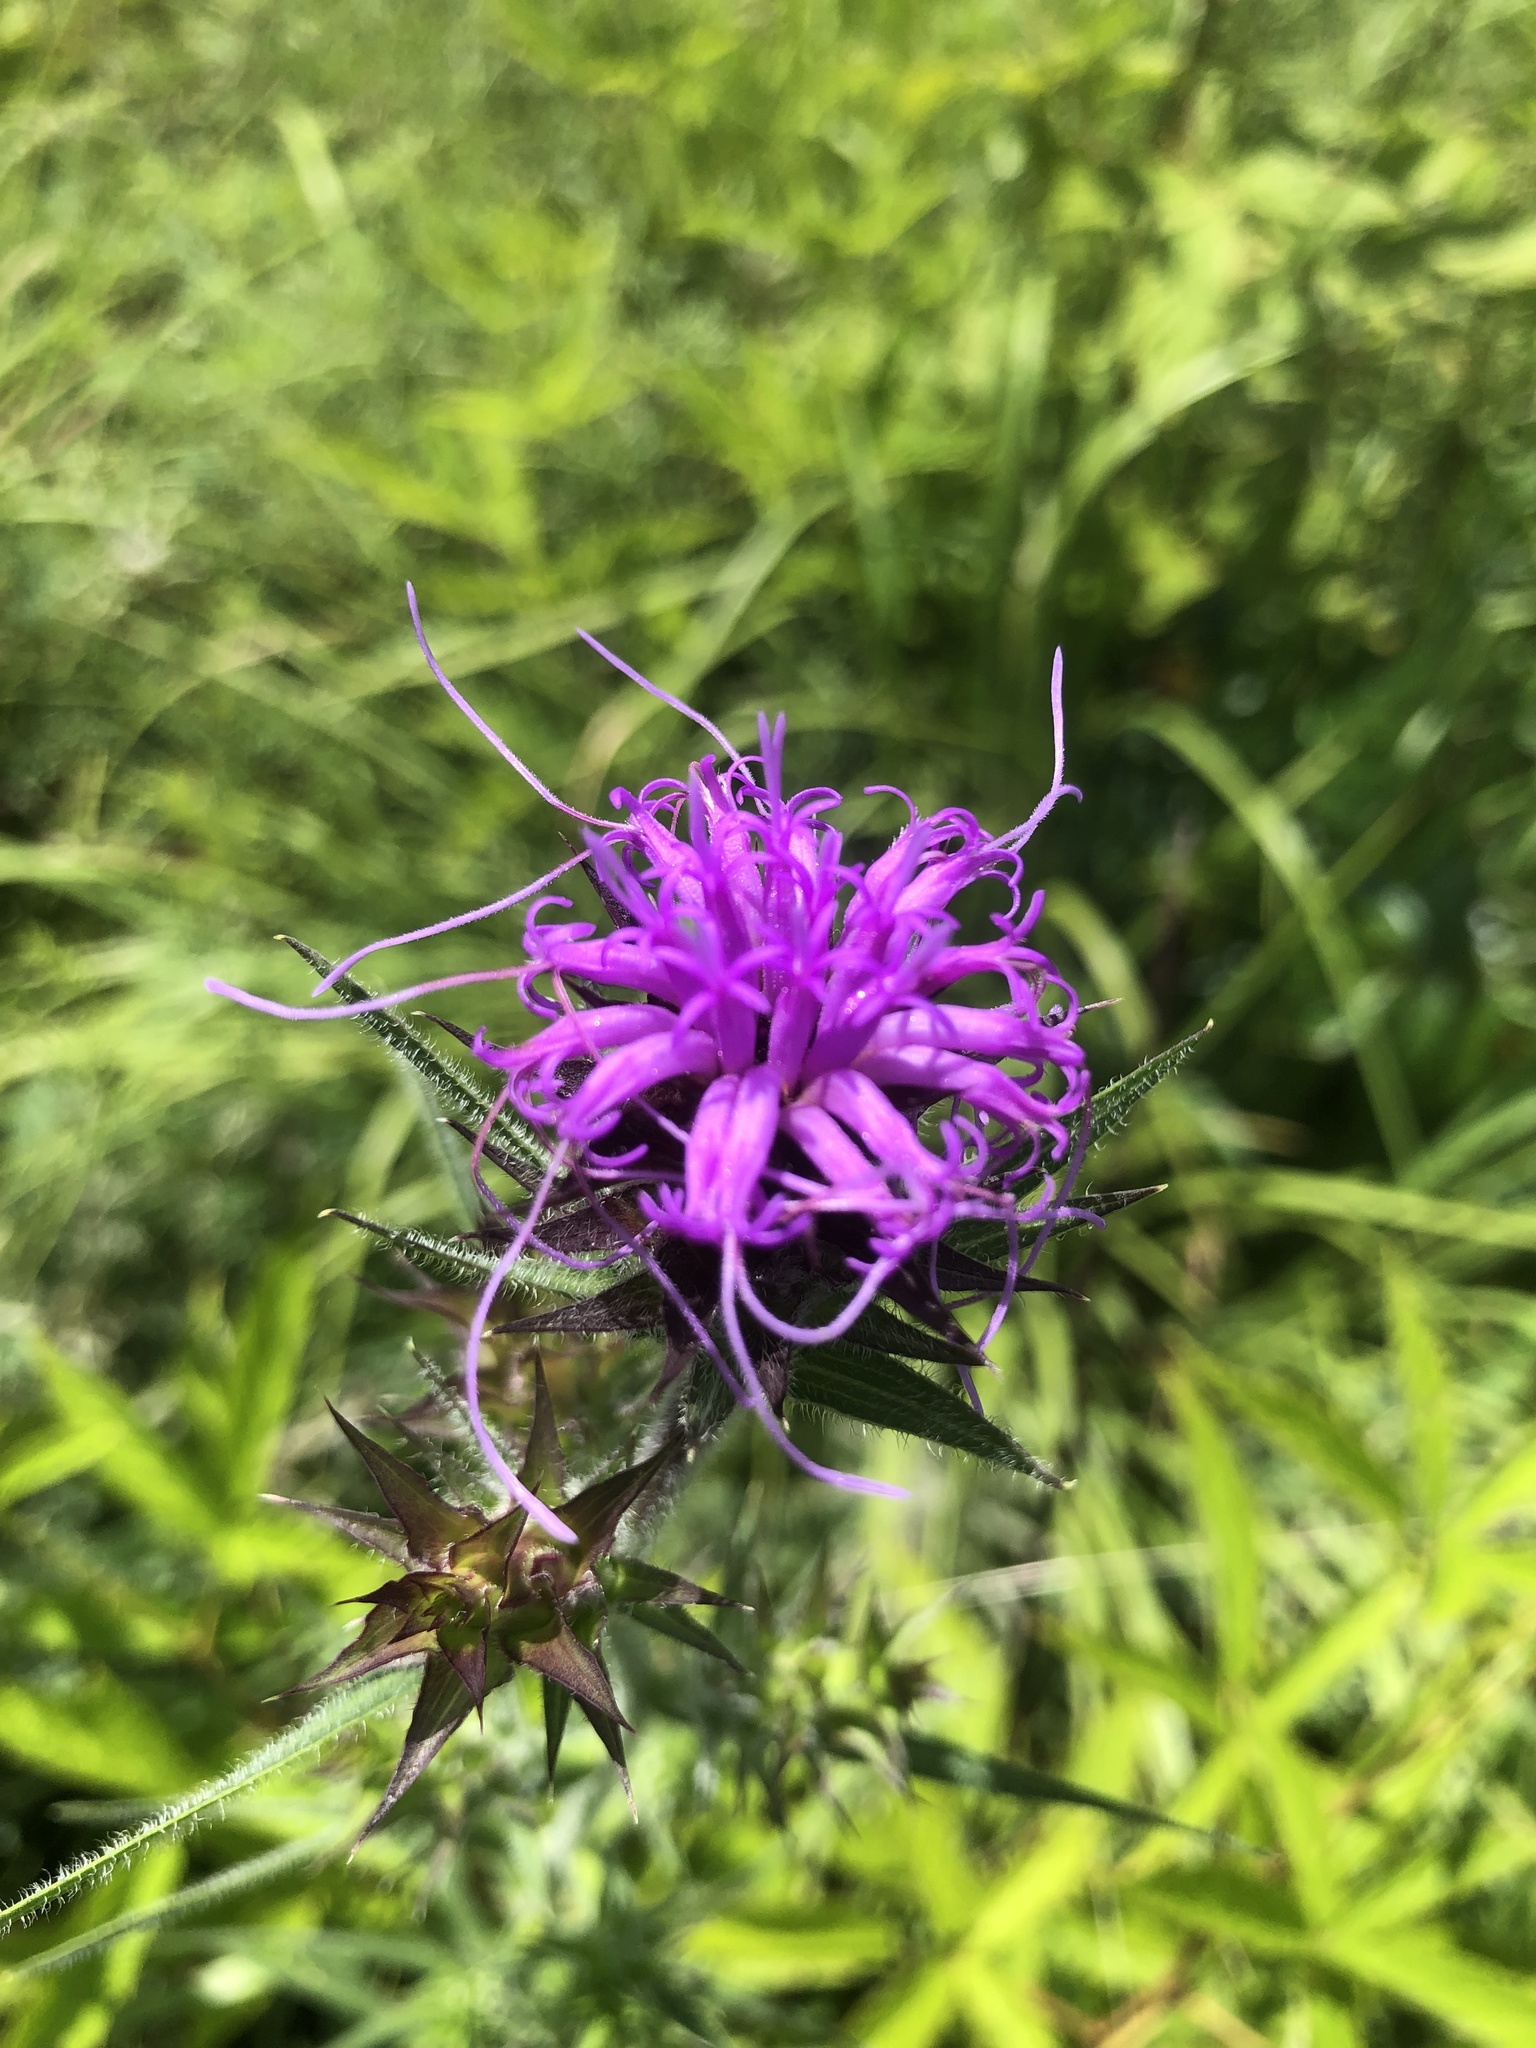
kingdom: Plantae
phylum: Tracheophyta
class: Magnoliopsida
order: Asterales
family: Asteraceae
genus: Liatris
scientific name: Liatris squarrosa
